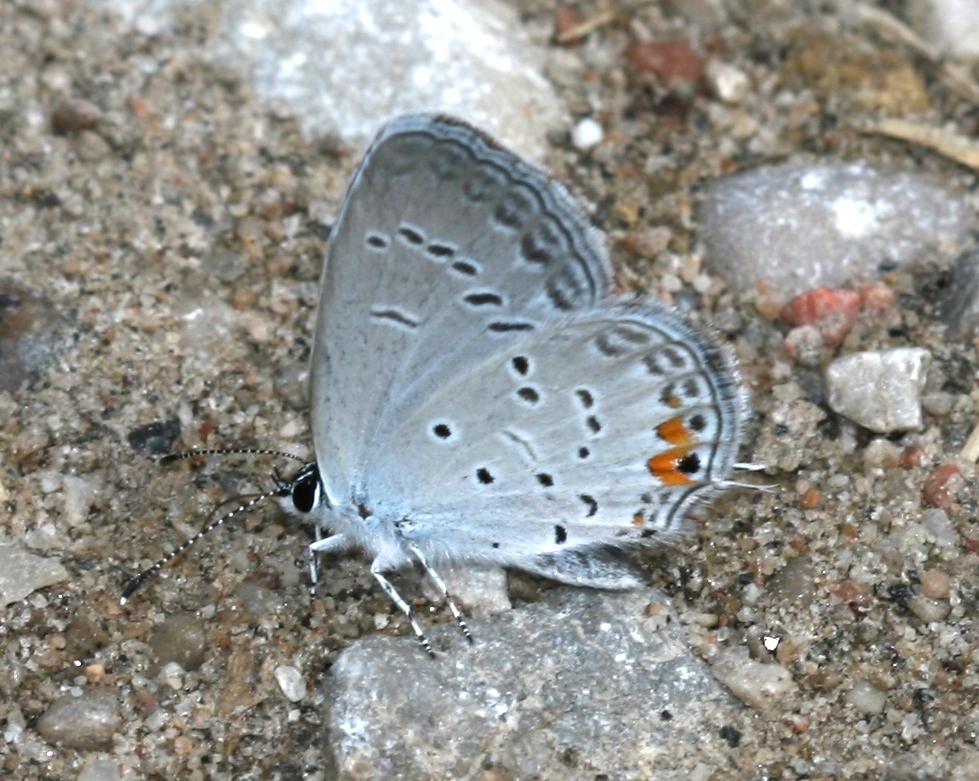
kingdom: Animalia
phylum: Arthropoda
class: Insecta
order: Lepidoptera
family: Lycaenidae
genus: Elkalyce
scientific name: Elkalyce comyntas
